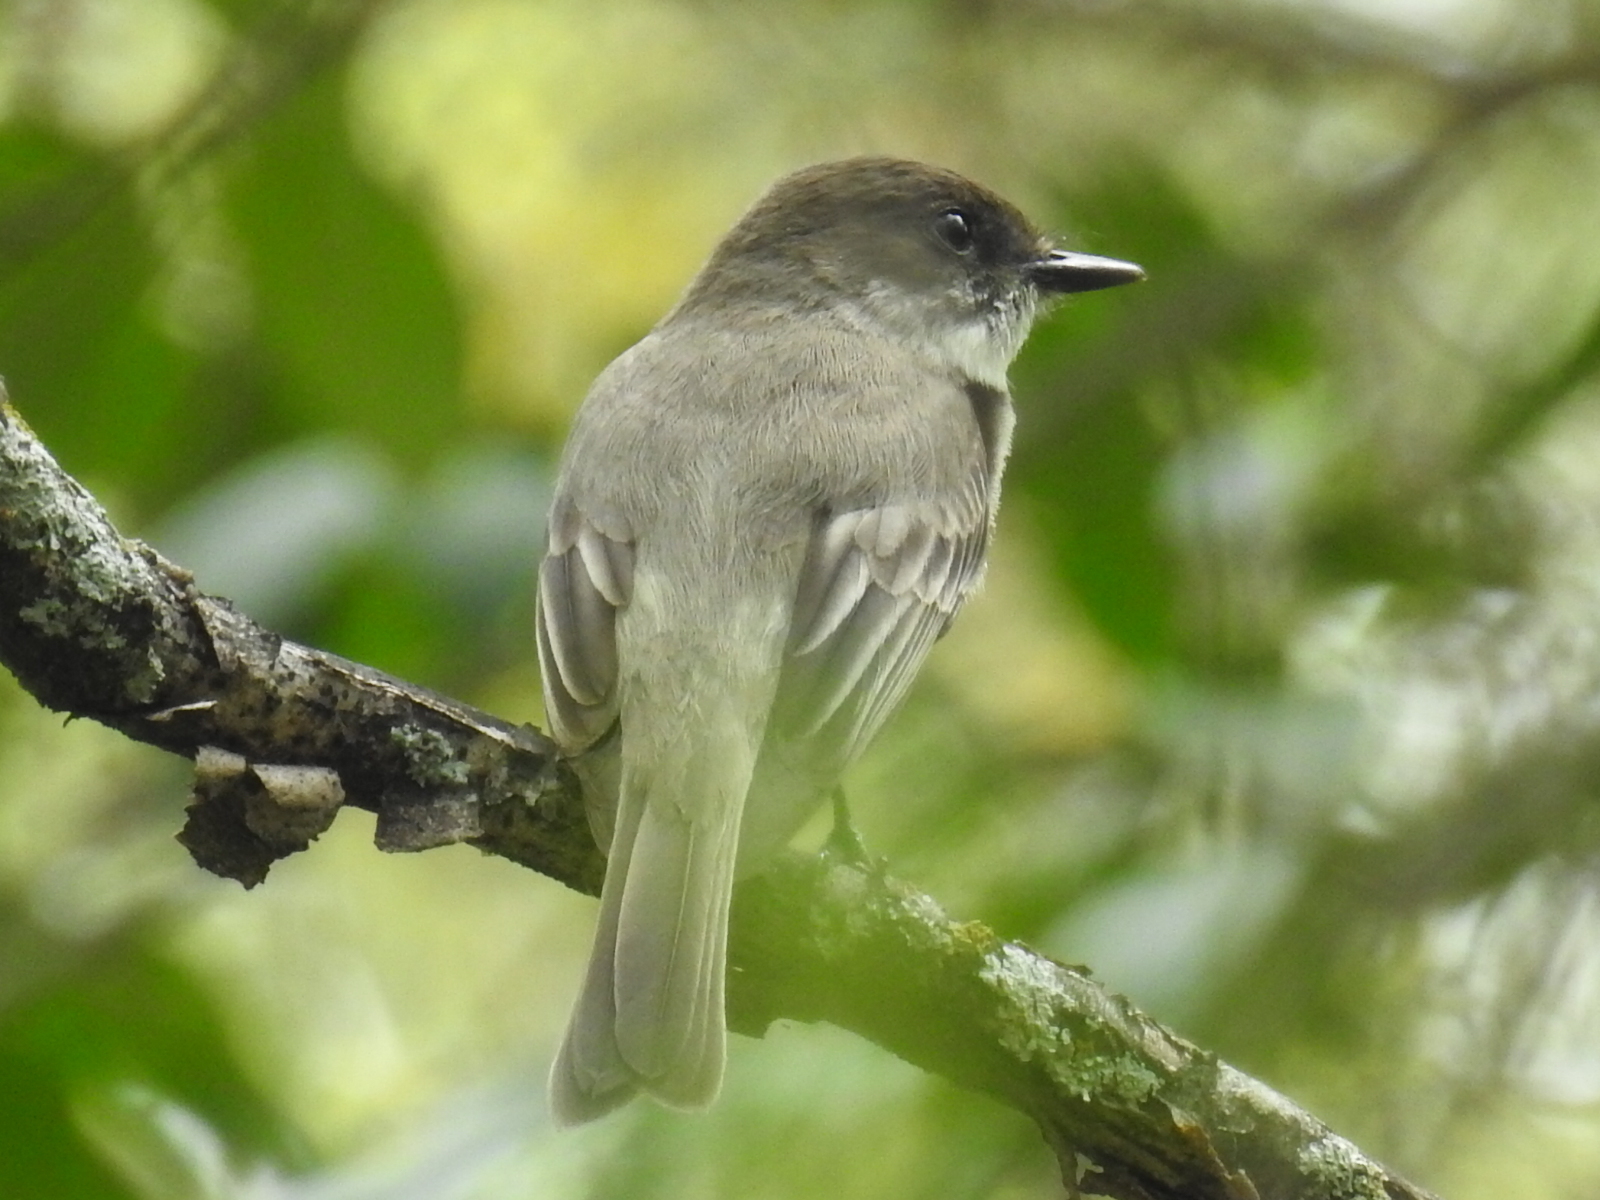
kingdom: Animalia
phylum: Chordata
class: Aves
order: Passeriformes
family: Tyrannidae
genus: Sayornis
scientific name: Sayornis phoebe
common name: Eastern phoebe
